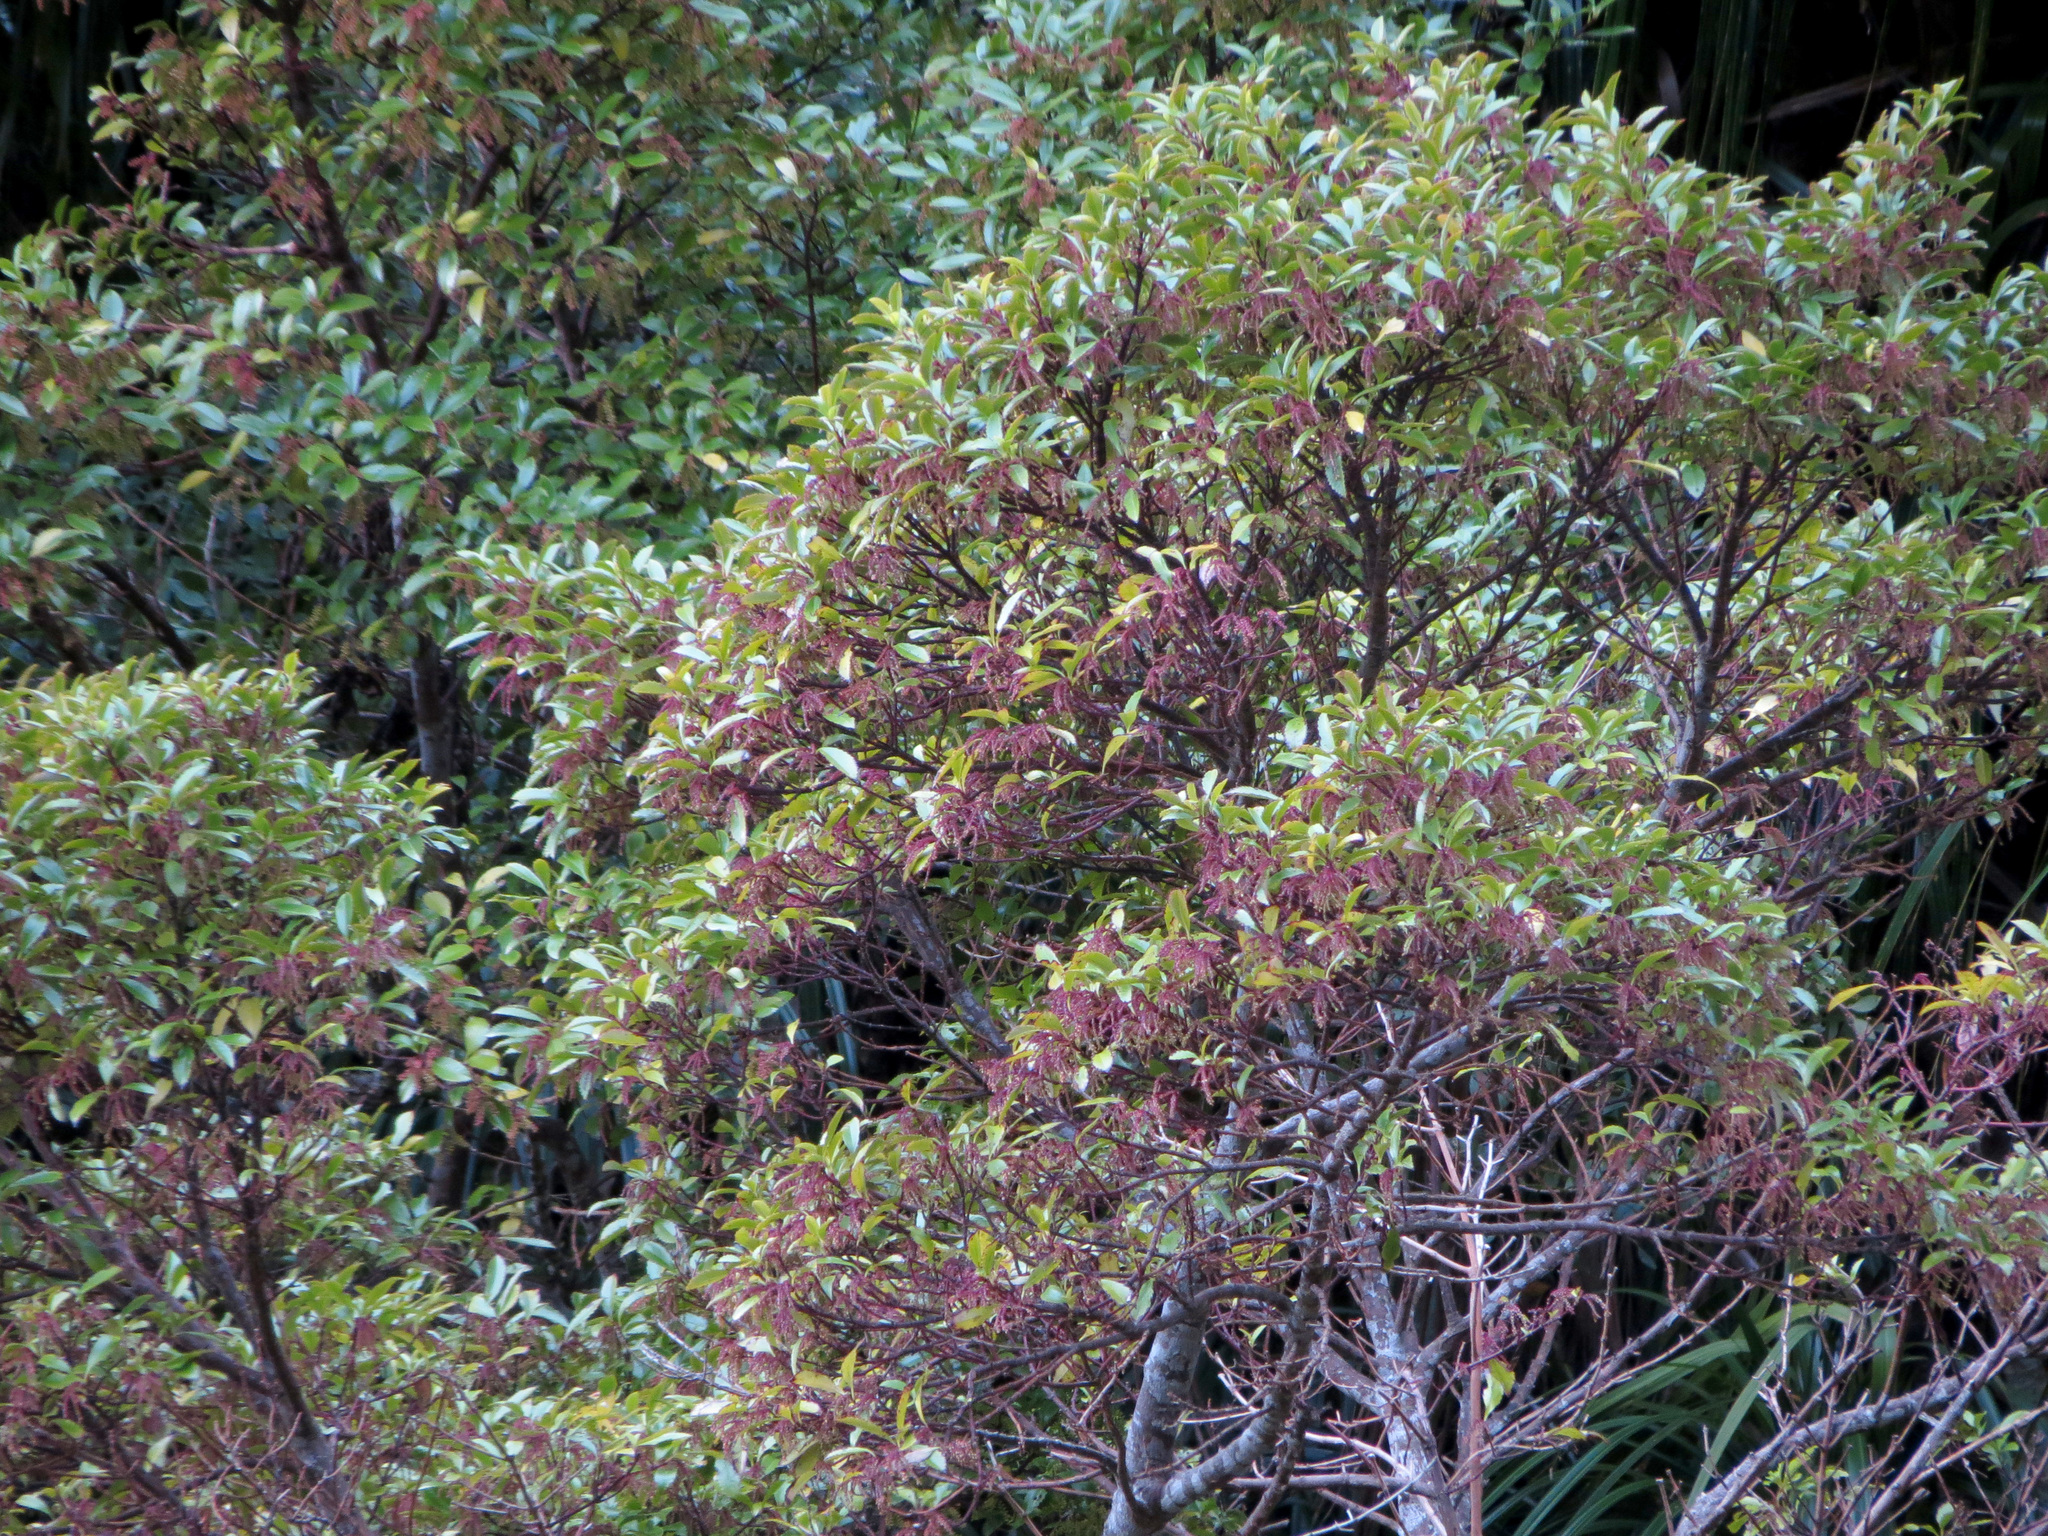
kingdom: Plantae
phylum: Tracheophyta
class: Magnoliopsida
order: Chloranthales
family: Chloranthaceae
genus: Ascarina
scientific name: Ascarina lucida
